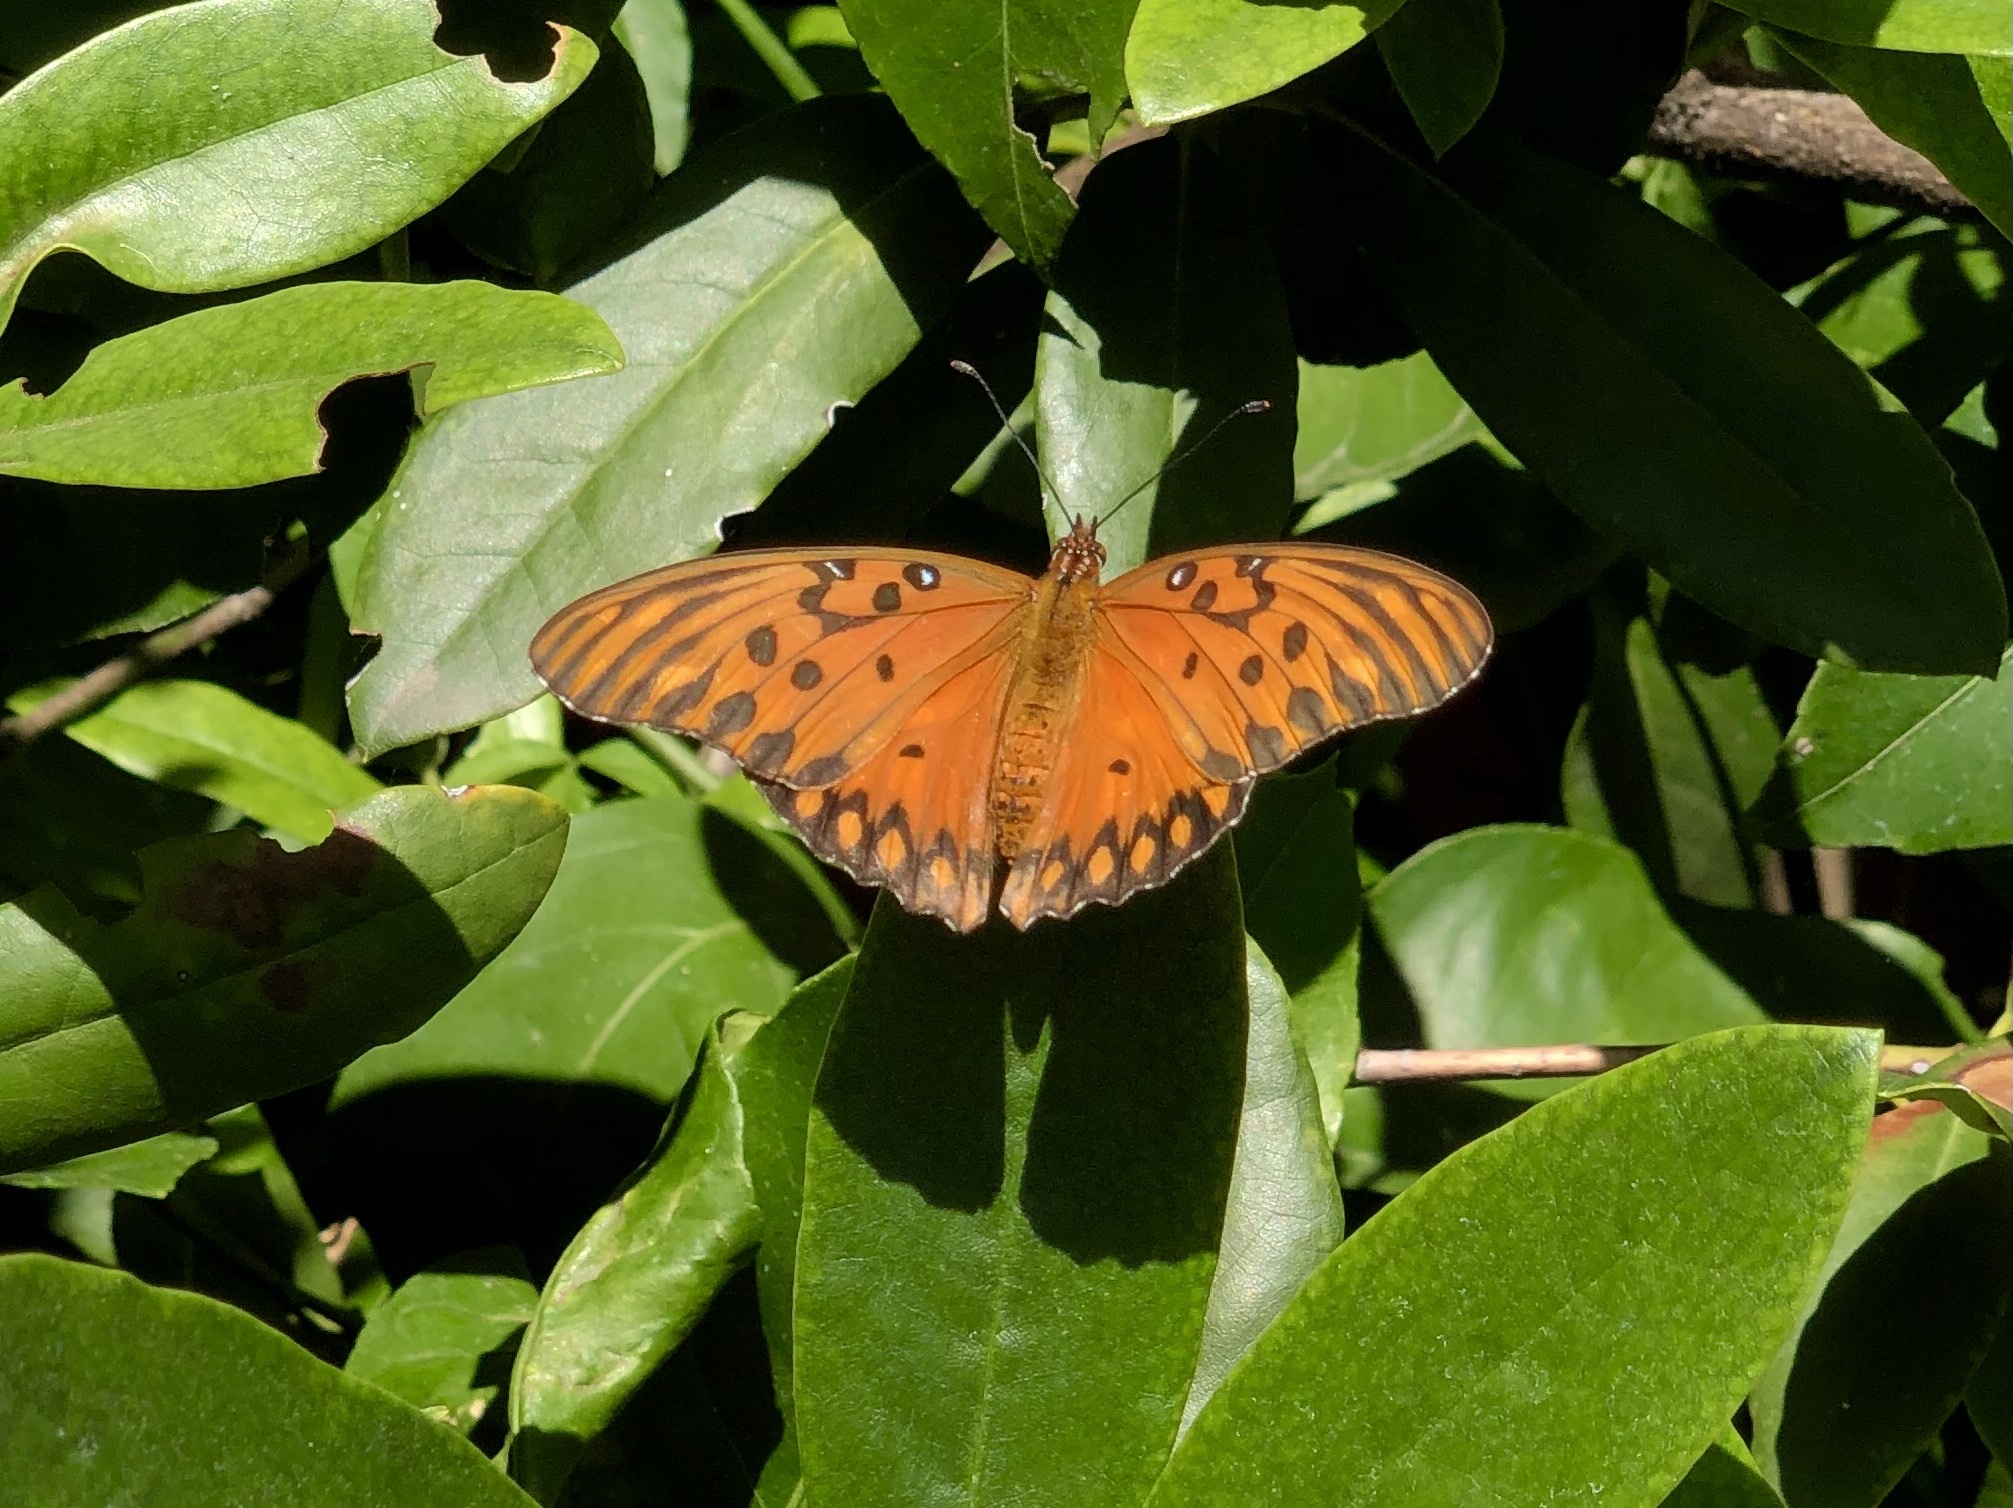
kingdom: Animalia
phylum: Arthropoda
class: Insecta
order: Lepidoptera
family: Nymphalidae
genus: Dione
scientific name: Dione vanillae
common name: Gulf fritillary
